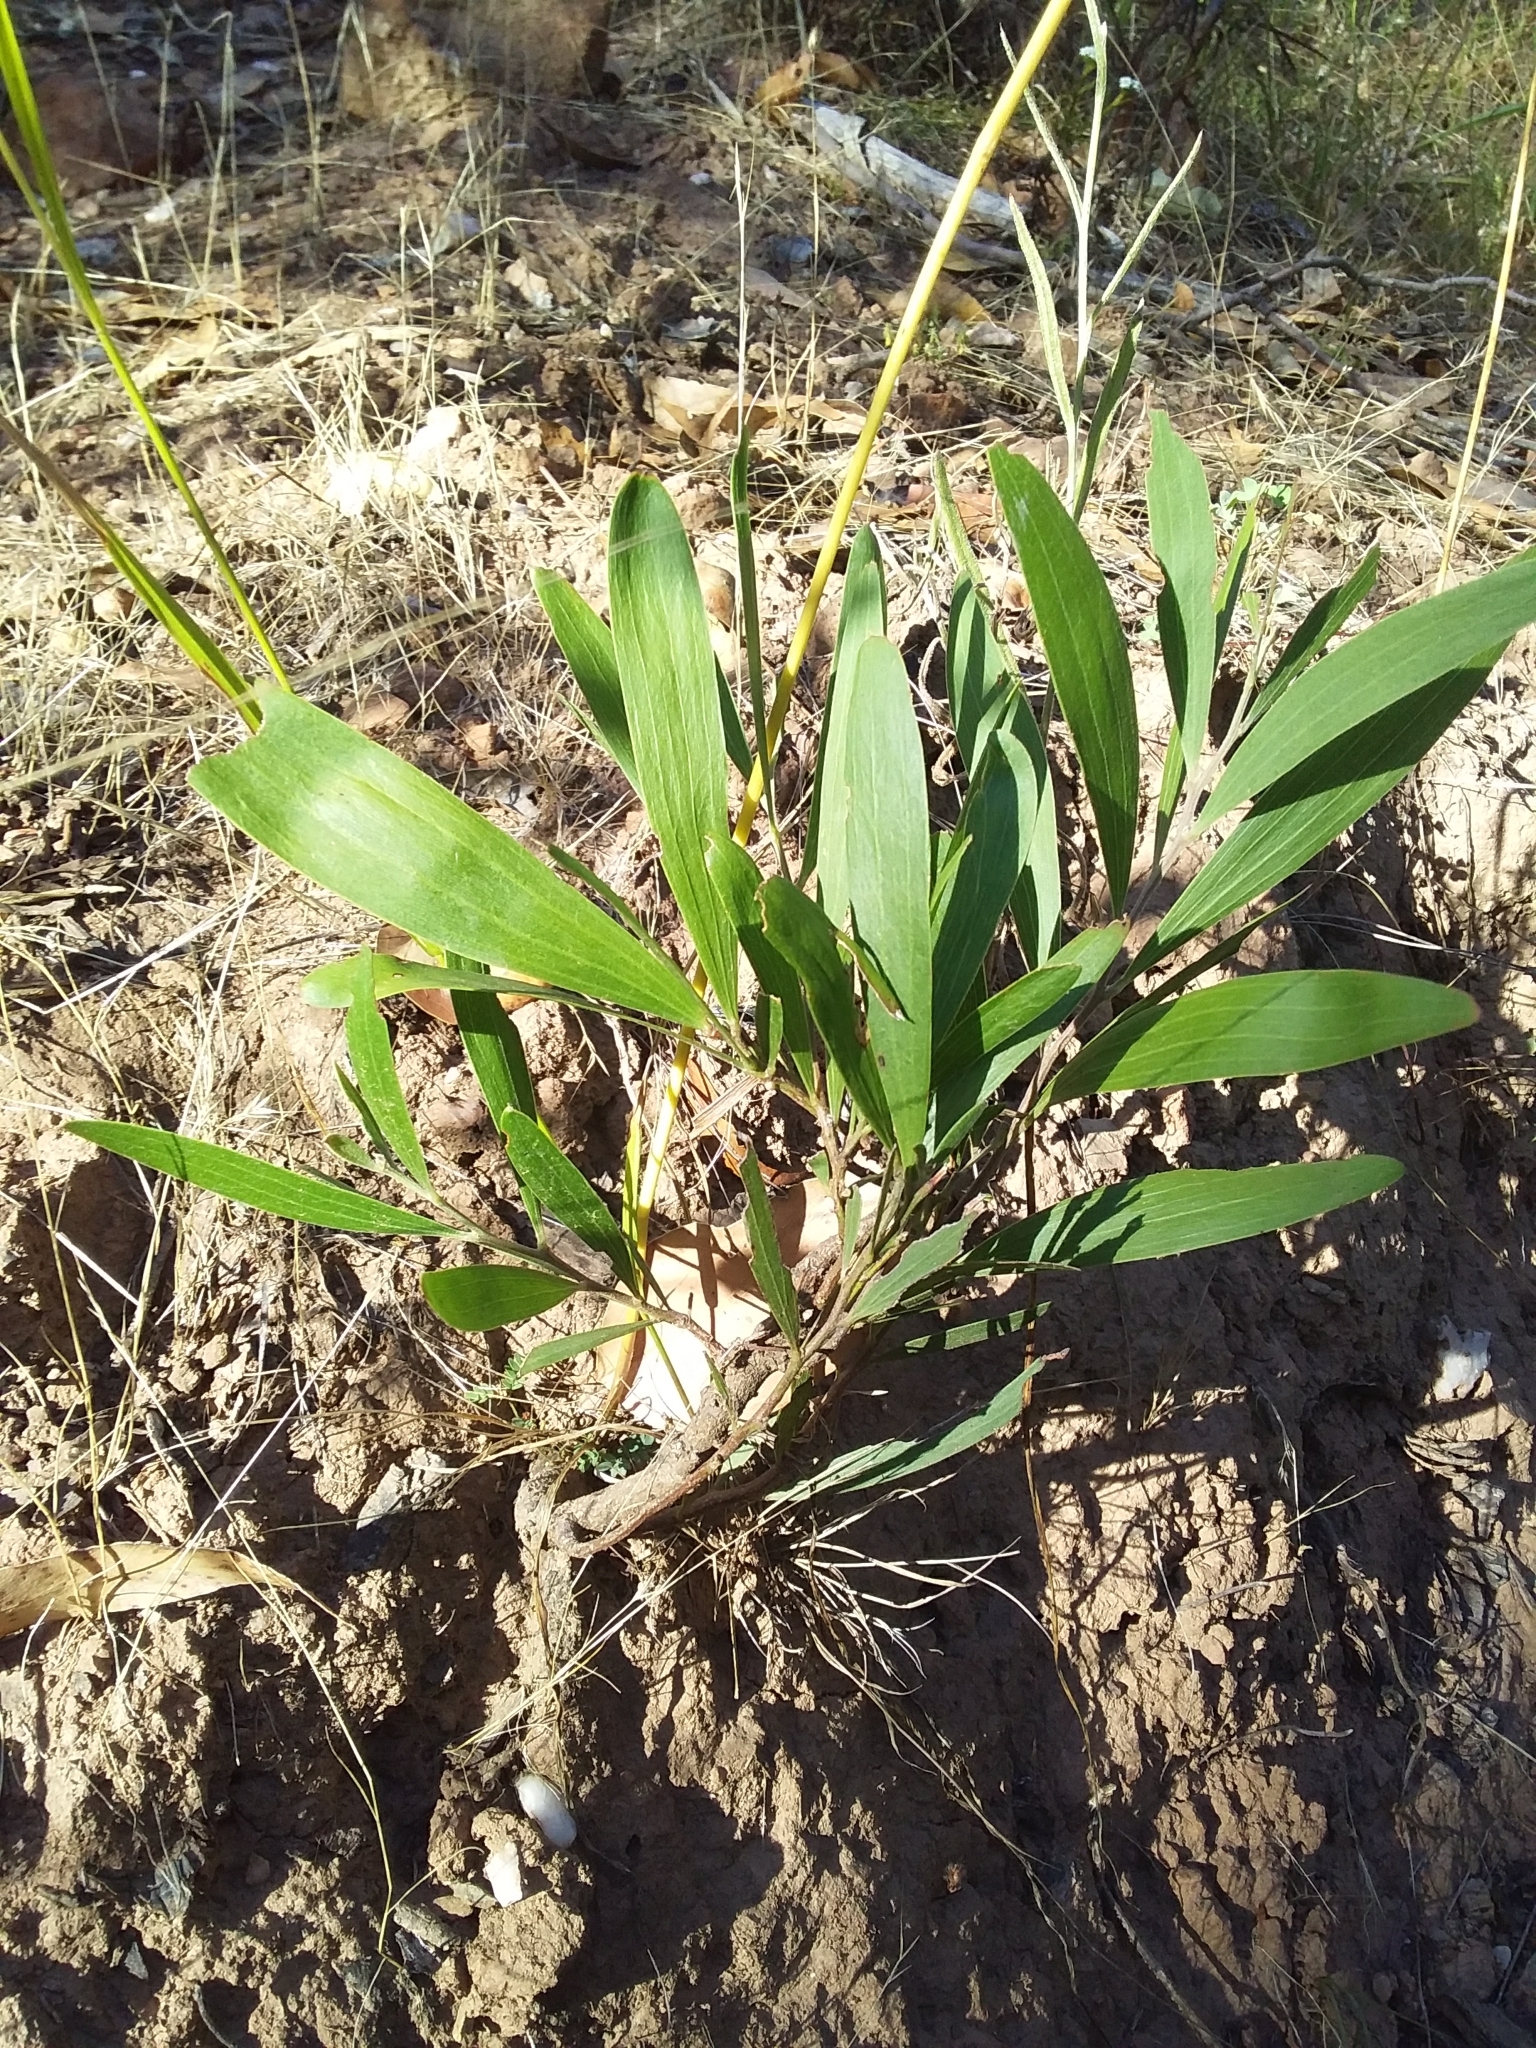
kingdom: Plantae
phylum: Tracheophyta
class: Magnoliopsida
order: Fabales
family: Fabaceae
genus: Acacia
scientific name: Acacia melanoxylon
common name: Blackwood
